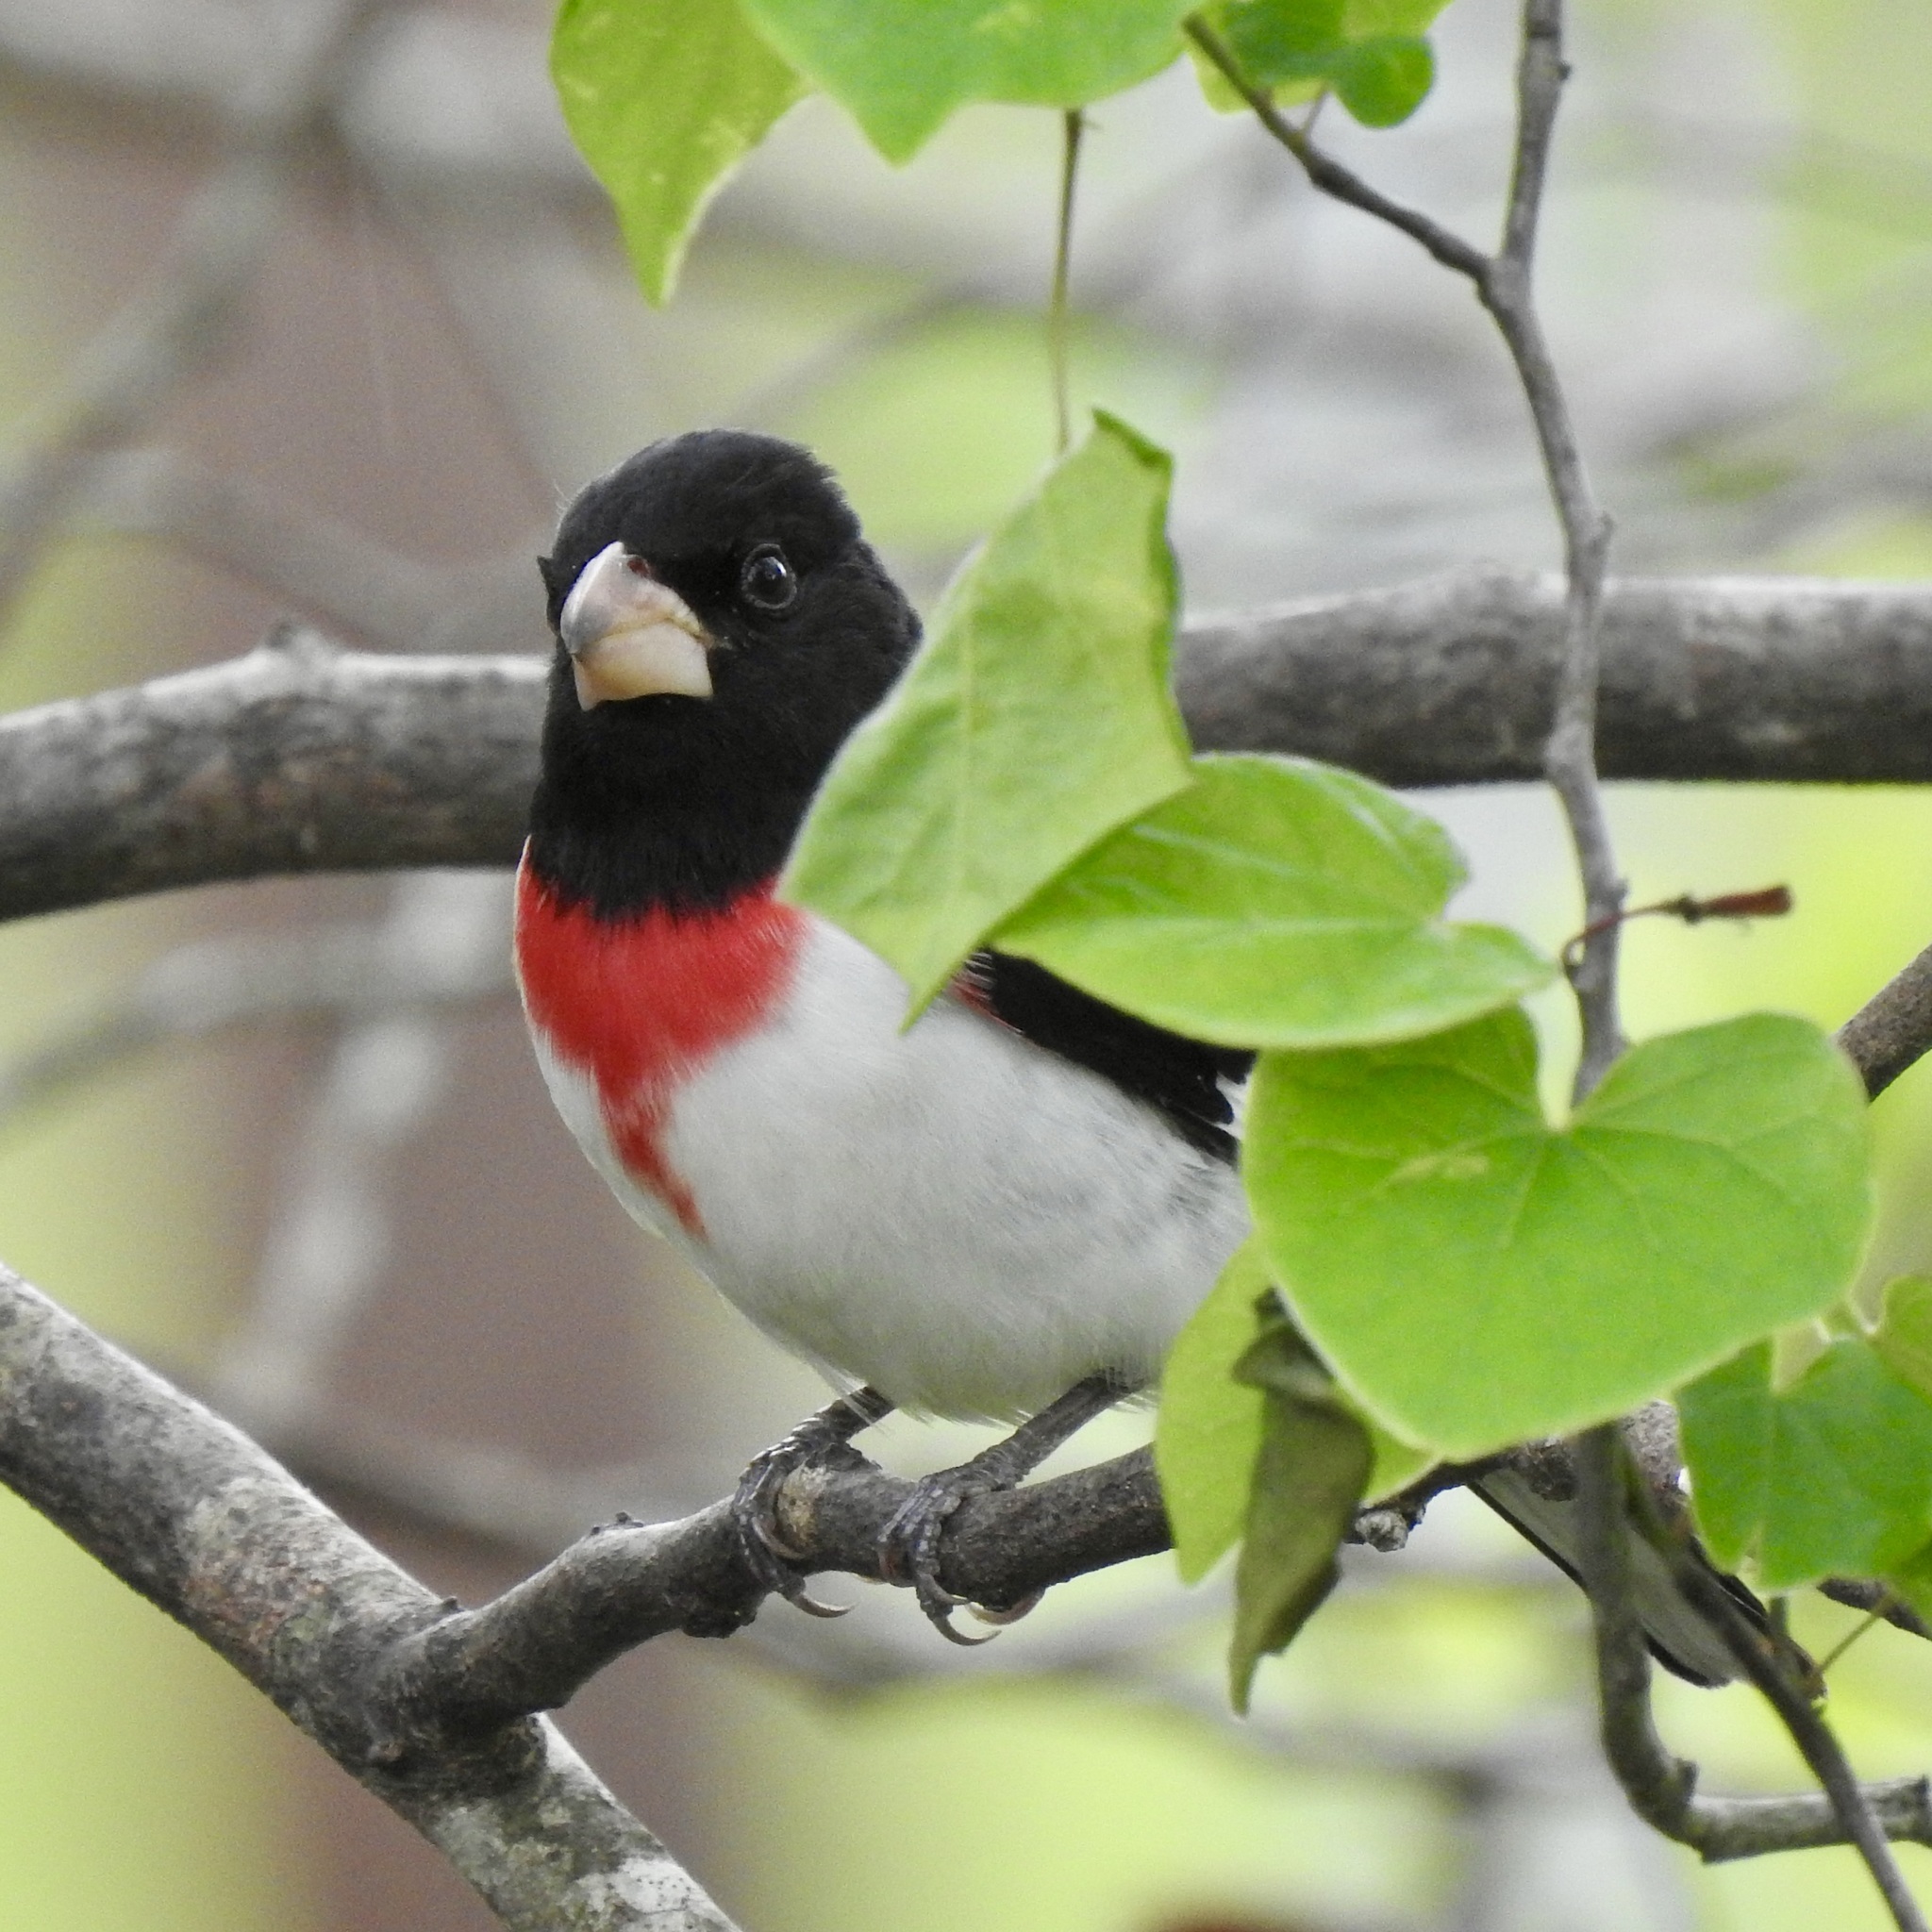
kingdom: Animalia
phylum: Chordata
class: Aves
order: Passeriformes
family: Cardinalidae
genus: Pheucticus
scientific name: Pheucticus ludovicianus
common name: Rose-breasted grosbeak
